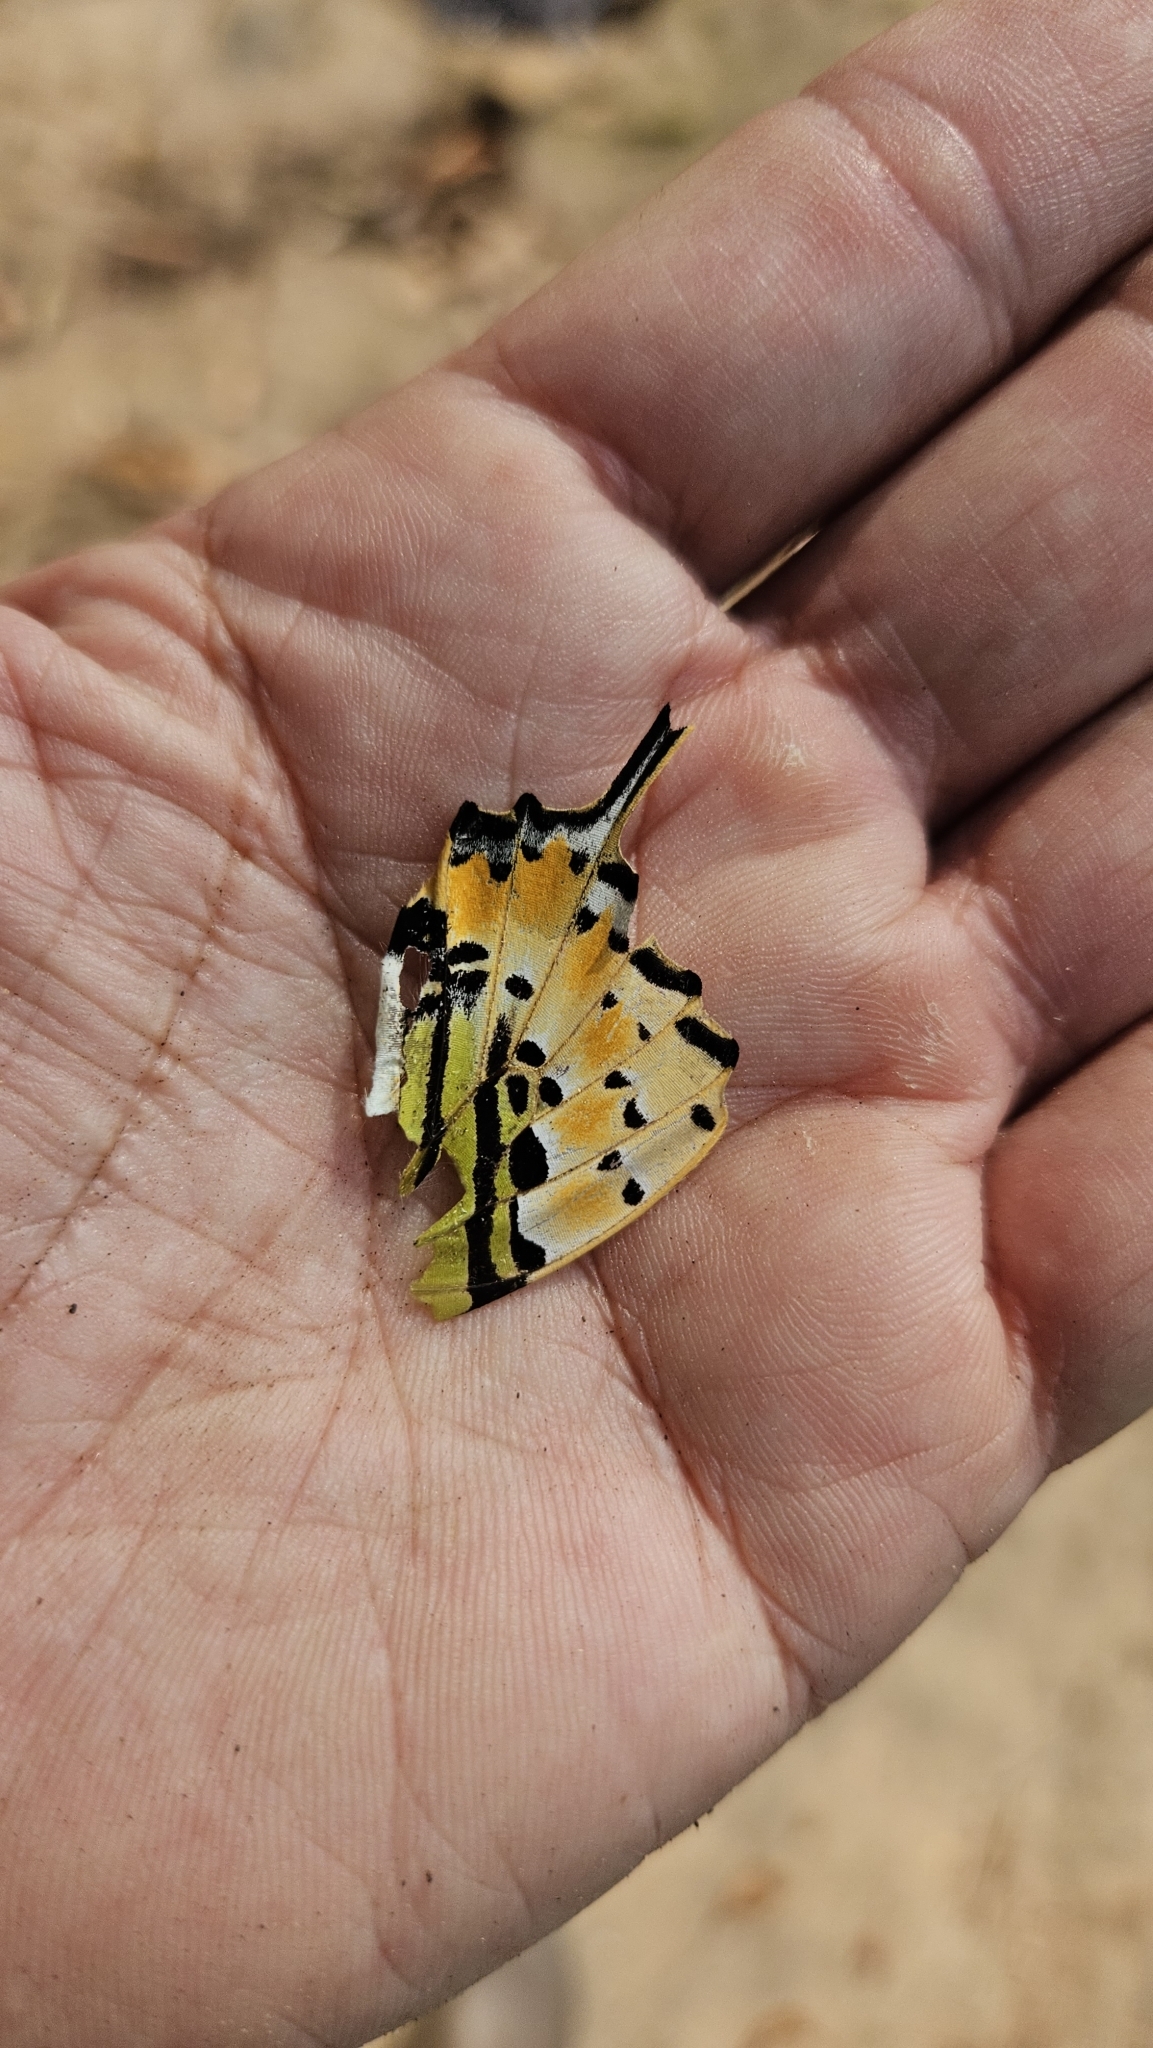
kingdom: Animalia
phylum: Arthropoda
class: Insecta
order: Lepidoptera
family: Papilionidae
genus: Graphium
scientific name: Graphium antiphates
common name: Fivebar swordtail
